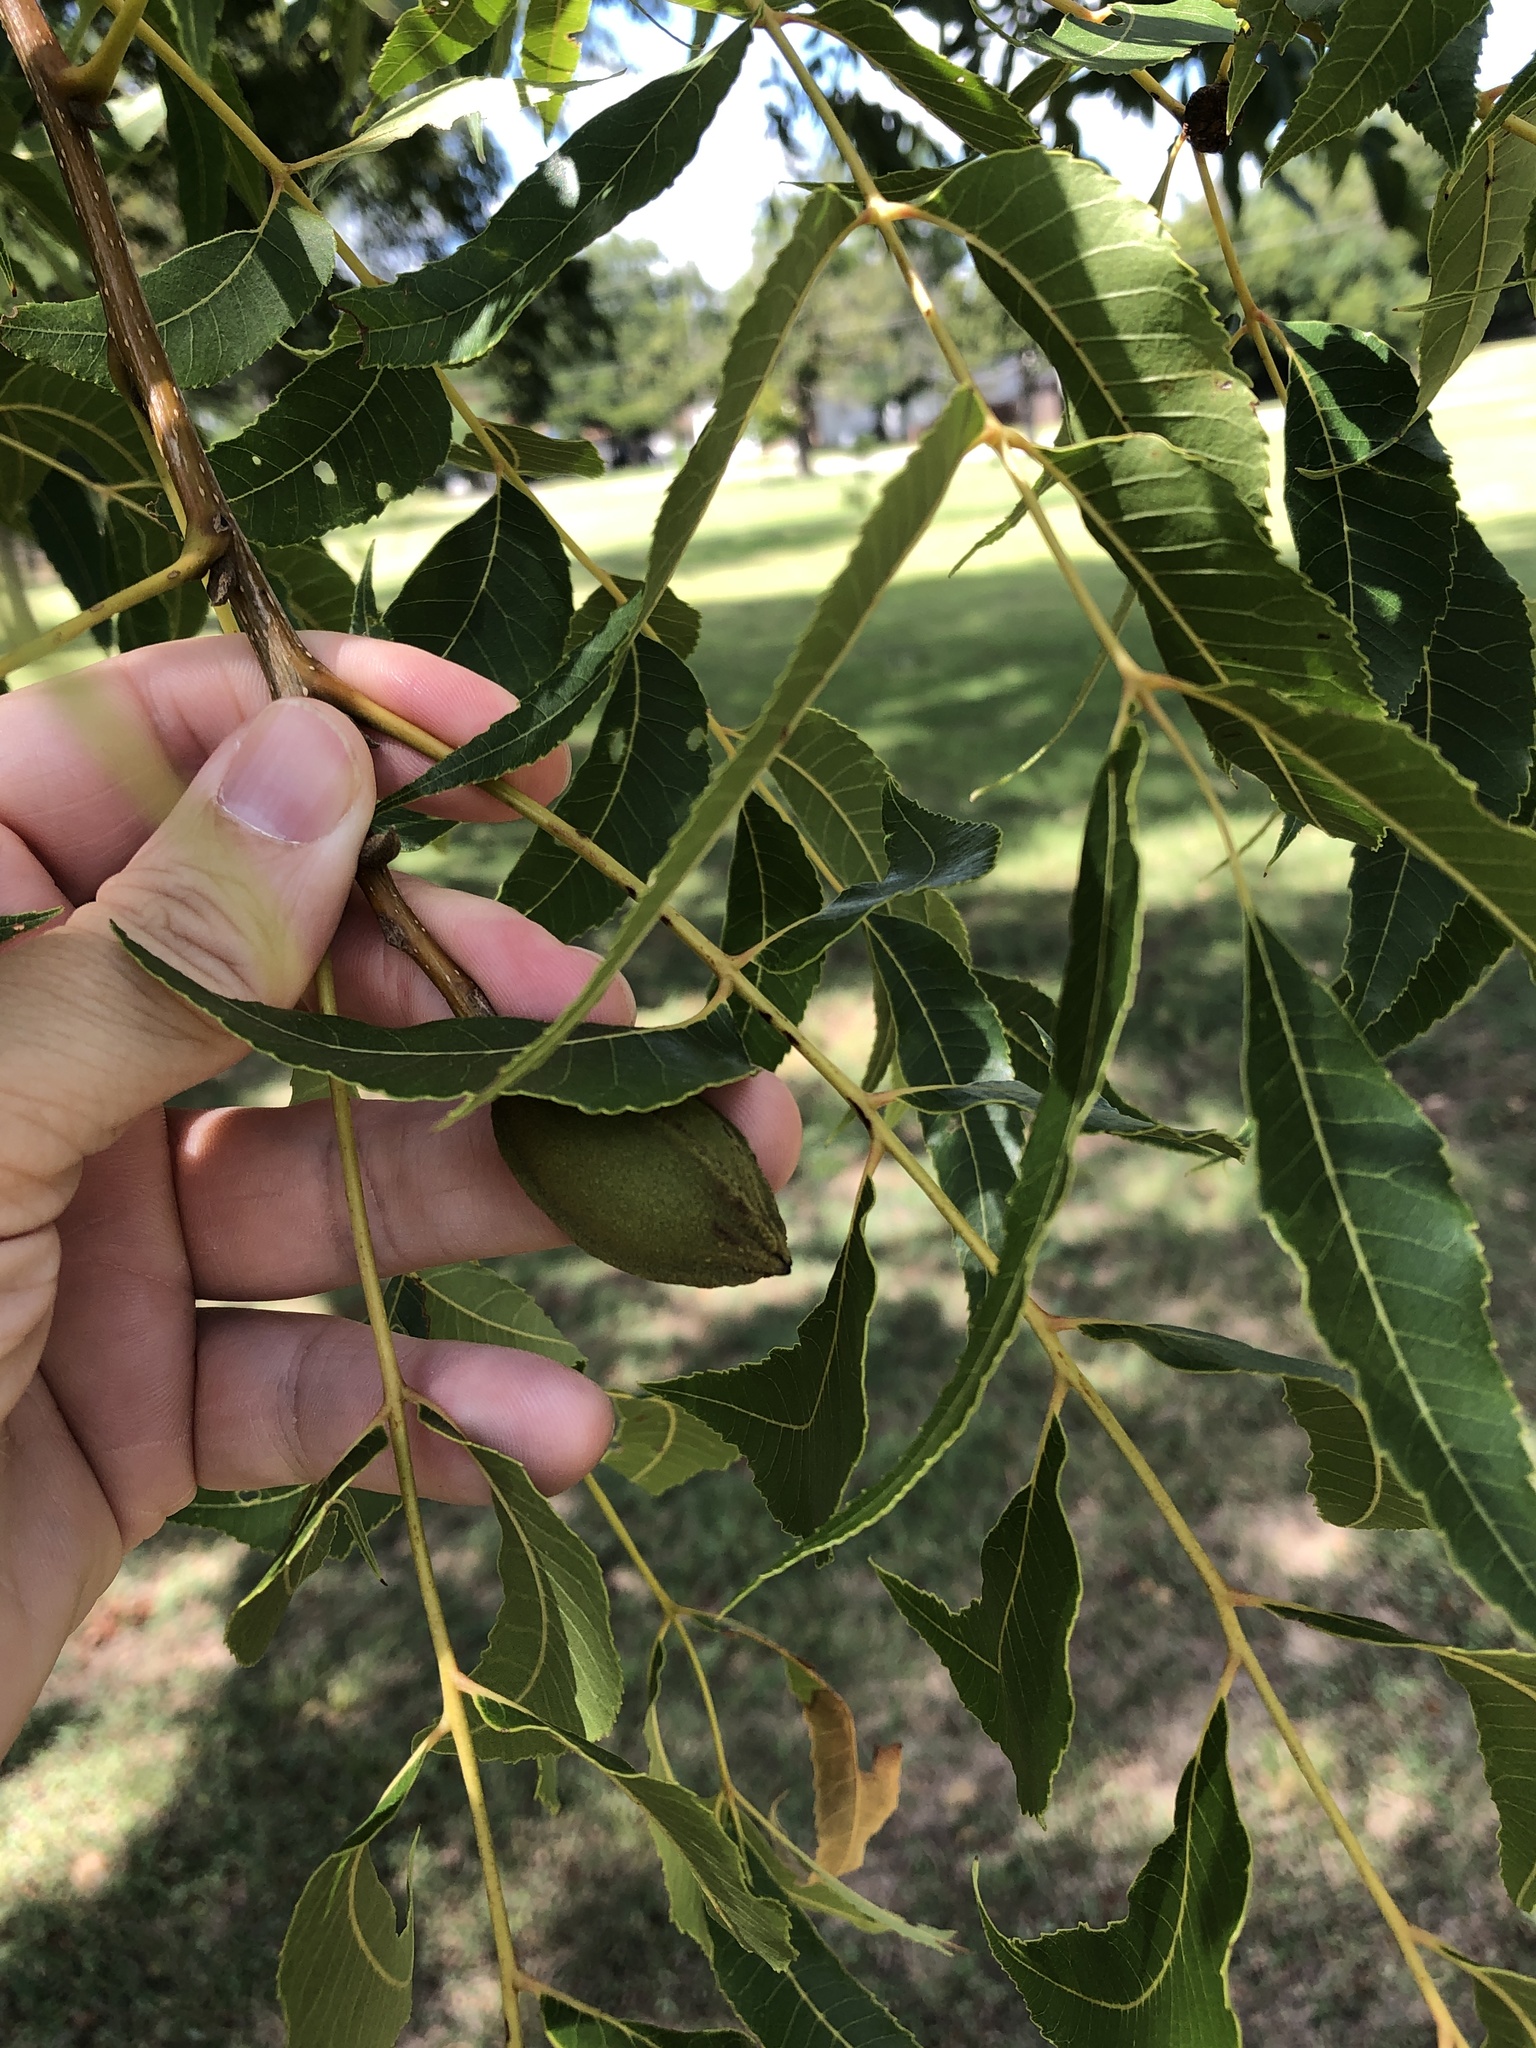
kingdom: Plantae
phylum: Tracheophyta
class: Magnoliopsida
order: Fagales
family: Juglandaceae
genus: Carya
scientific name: Carya illinoinensis
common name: Pecan
